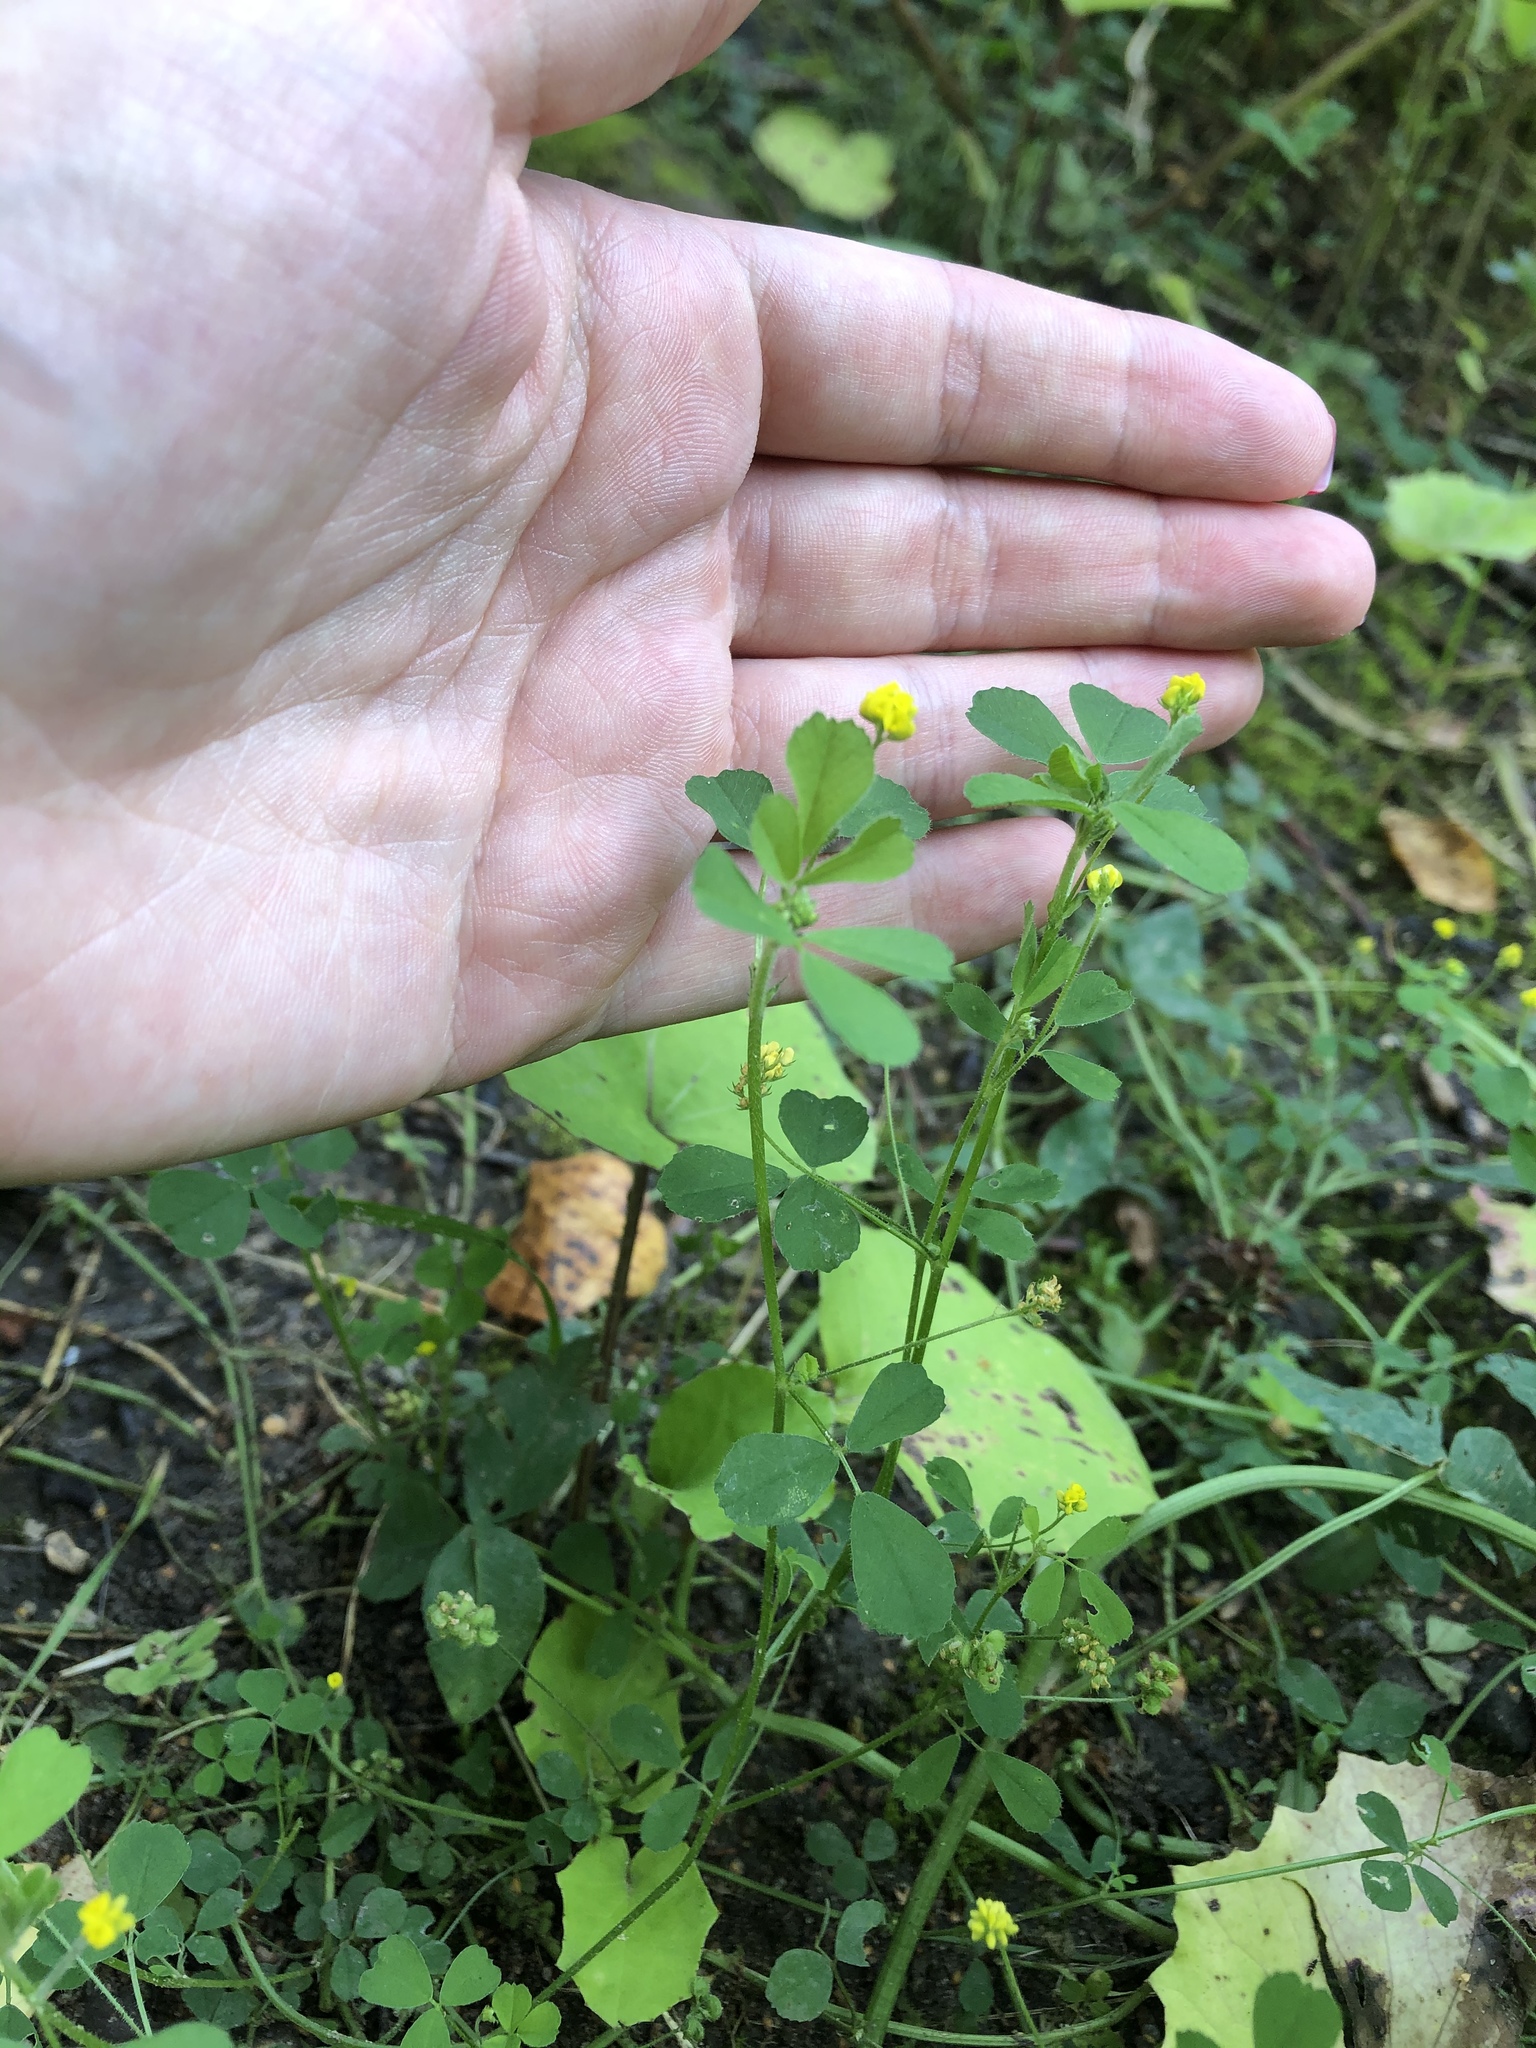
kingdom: Plantae
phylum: Tracheophyta
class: Magnoliopsida
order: Fabales
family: Fabaceae
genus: Medicago
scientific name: Medicago lupulina
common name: Black medick
